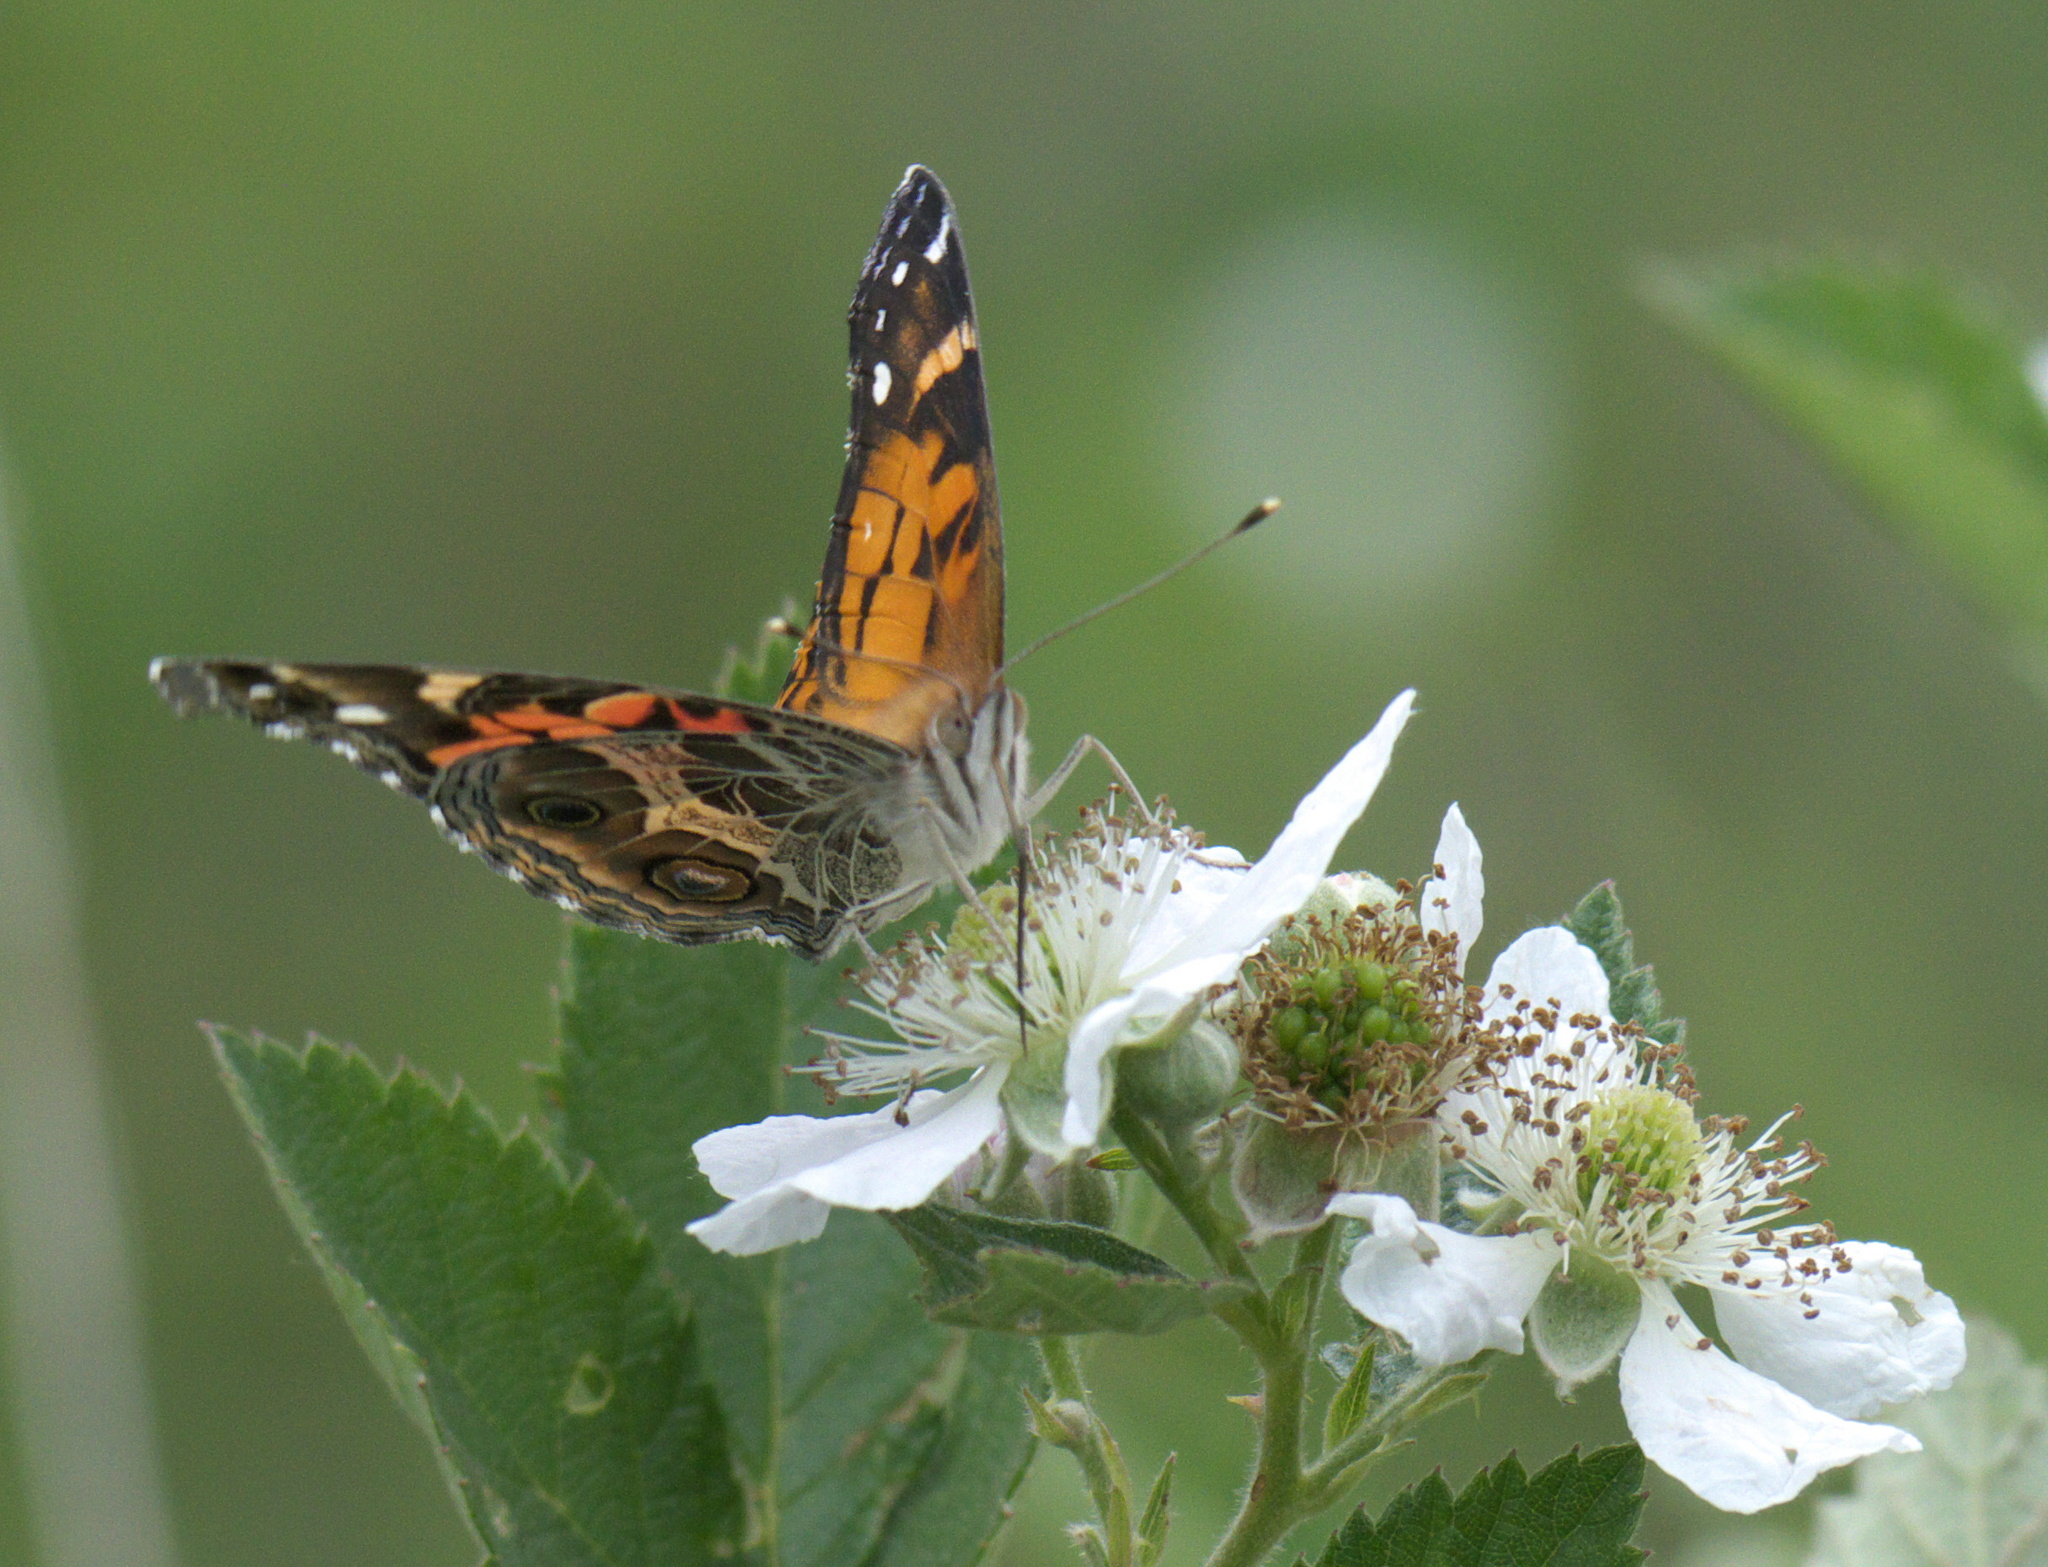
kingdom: Animalia
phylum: Arthropoda
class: Insecta
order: Lepidoptera
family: Nymphalidae
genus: Vanessa
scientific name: Vanessa virginiensis
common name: American lady
